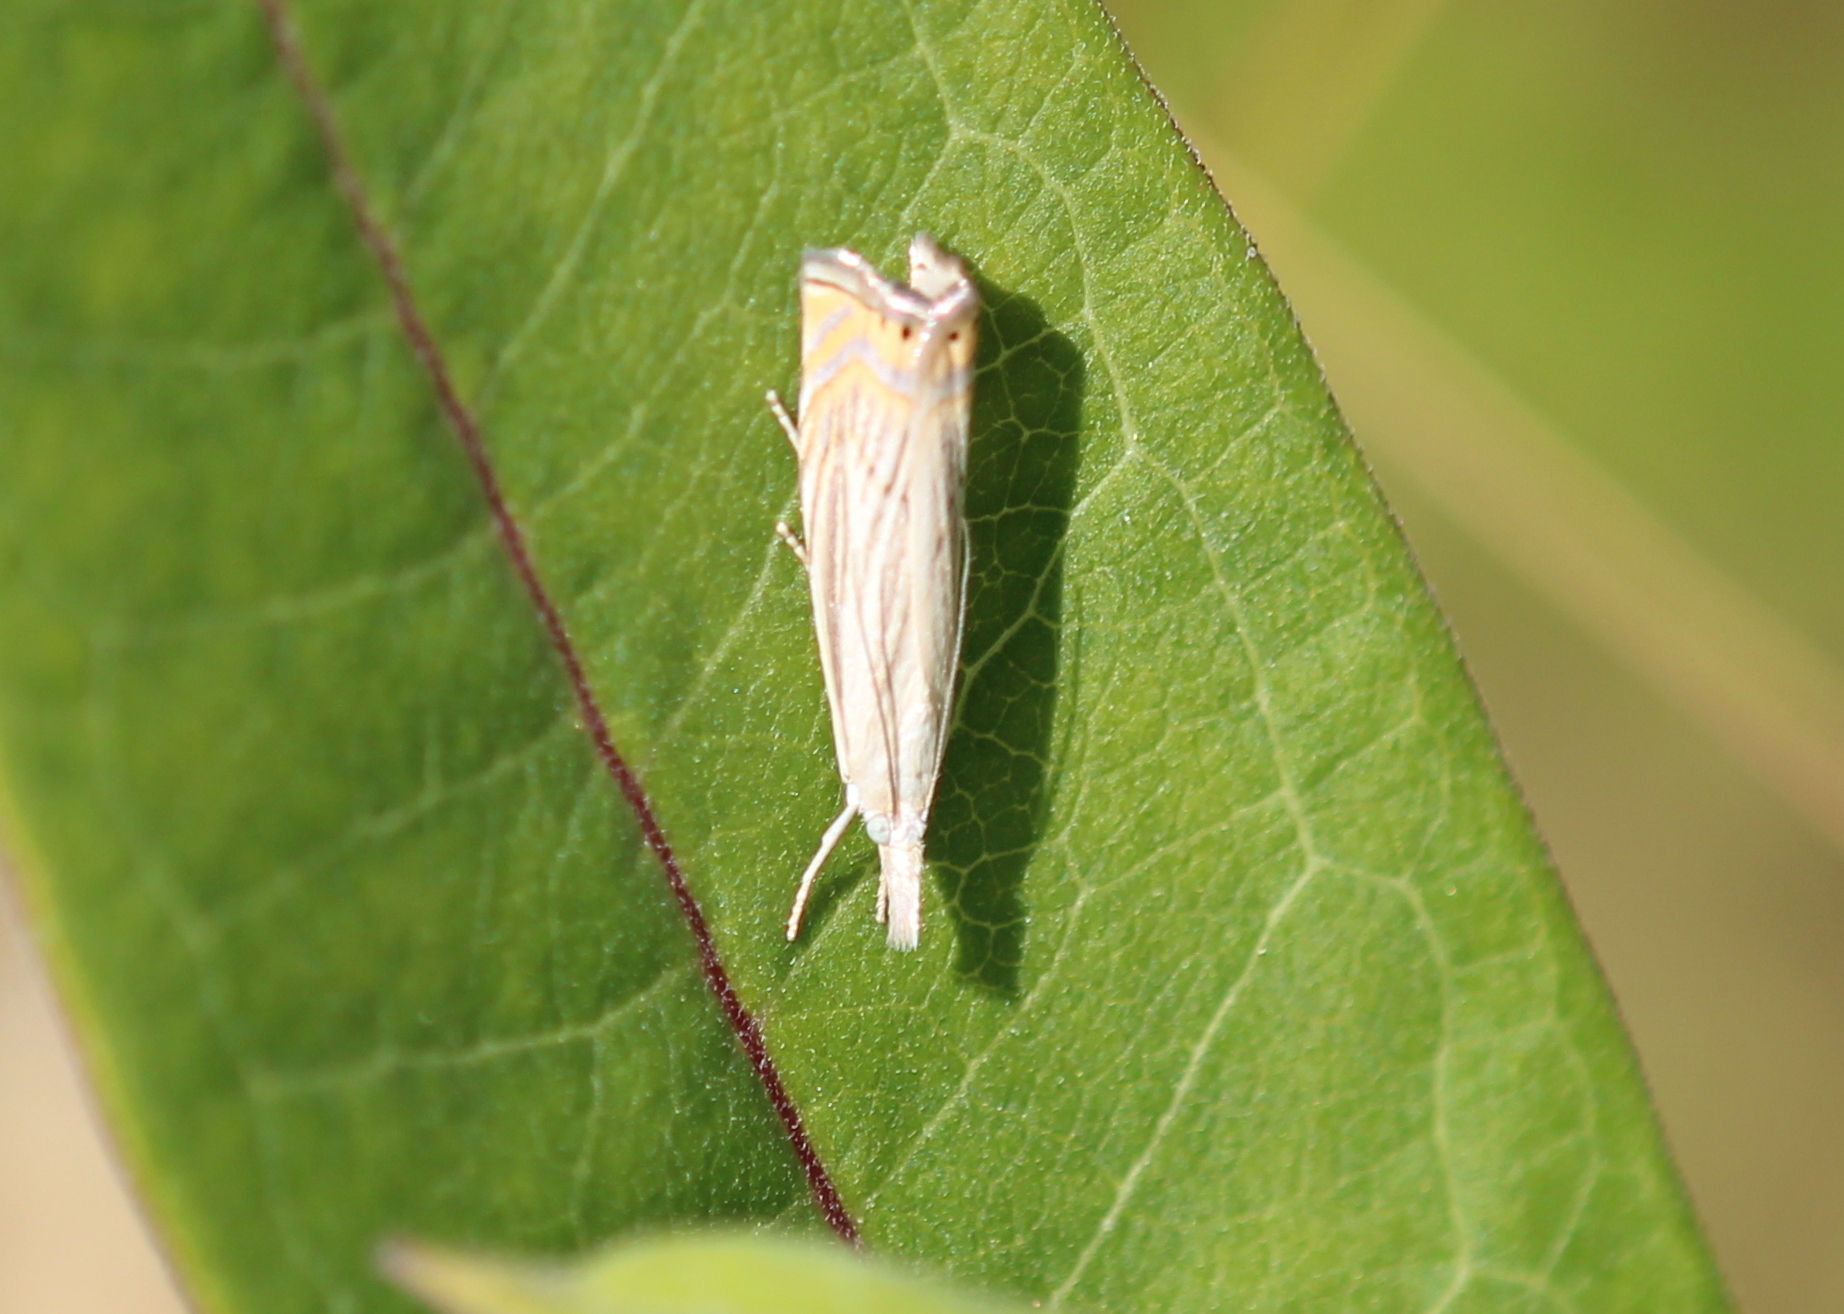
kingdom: Animalia
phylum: Arthropoda
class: Insecta
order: Lepidoptera
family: Crambidae
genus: Chrysoteuchia
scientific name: Chrysoteuchia topiarius
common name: Topiary grass-veneer
